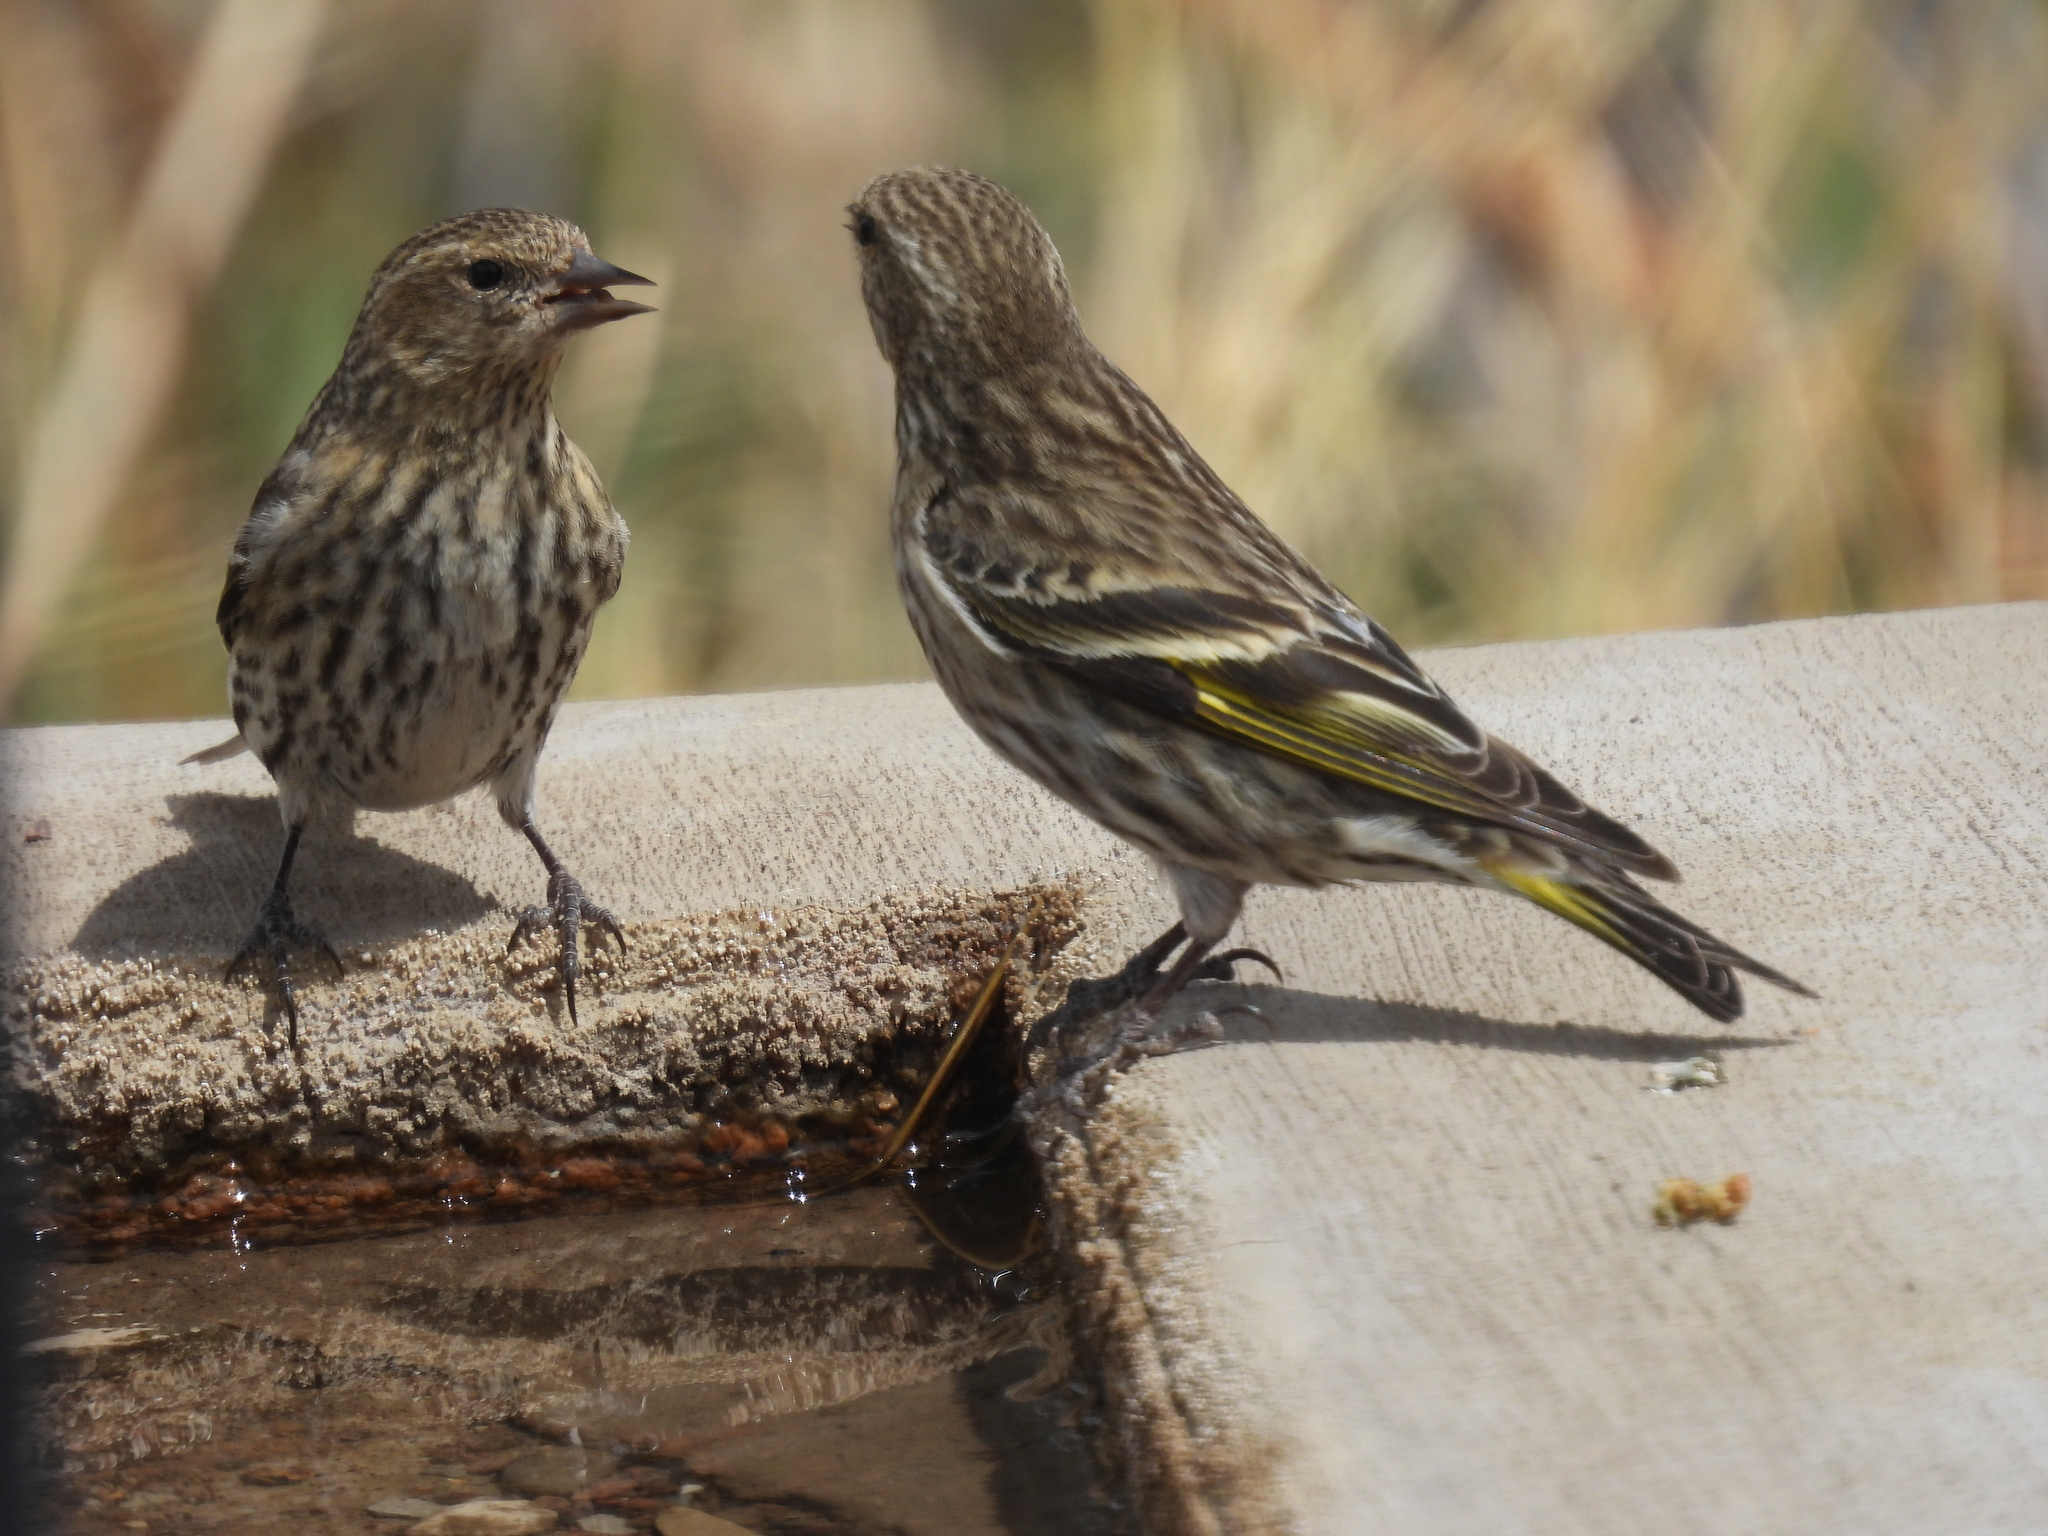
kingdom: Animalia
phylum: Chordata
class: Aves
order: Passeriformes
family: Fringillidae
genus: Spinus
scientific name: Spinus pinus
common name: Pine siskin
